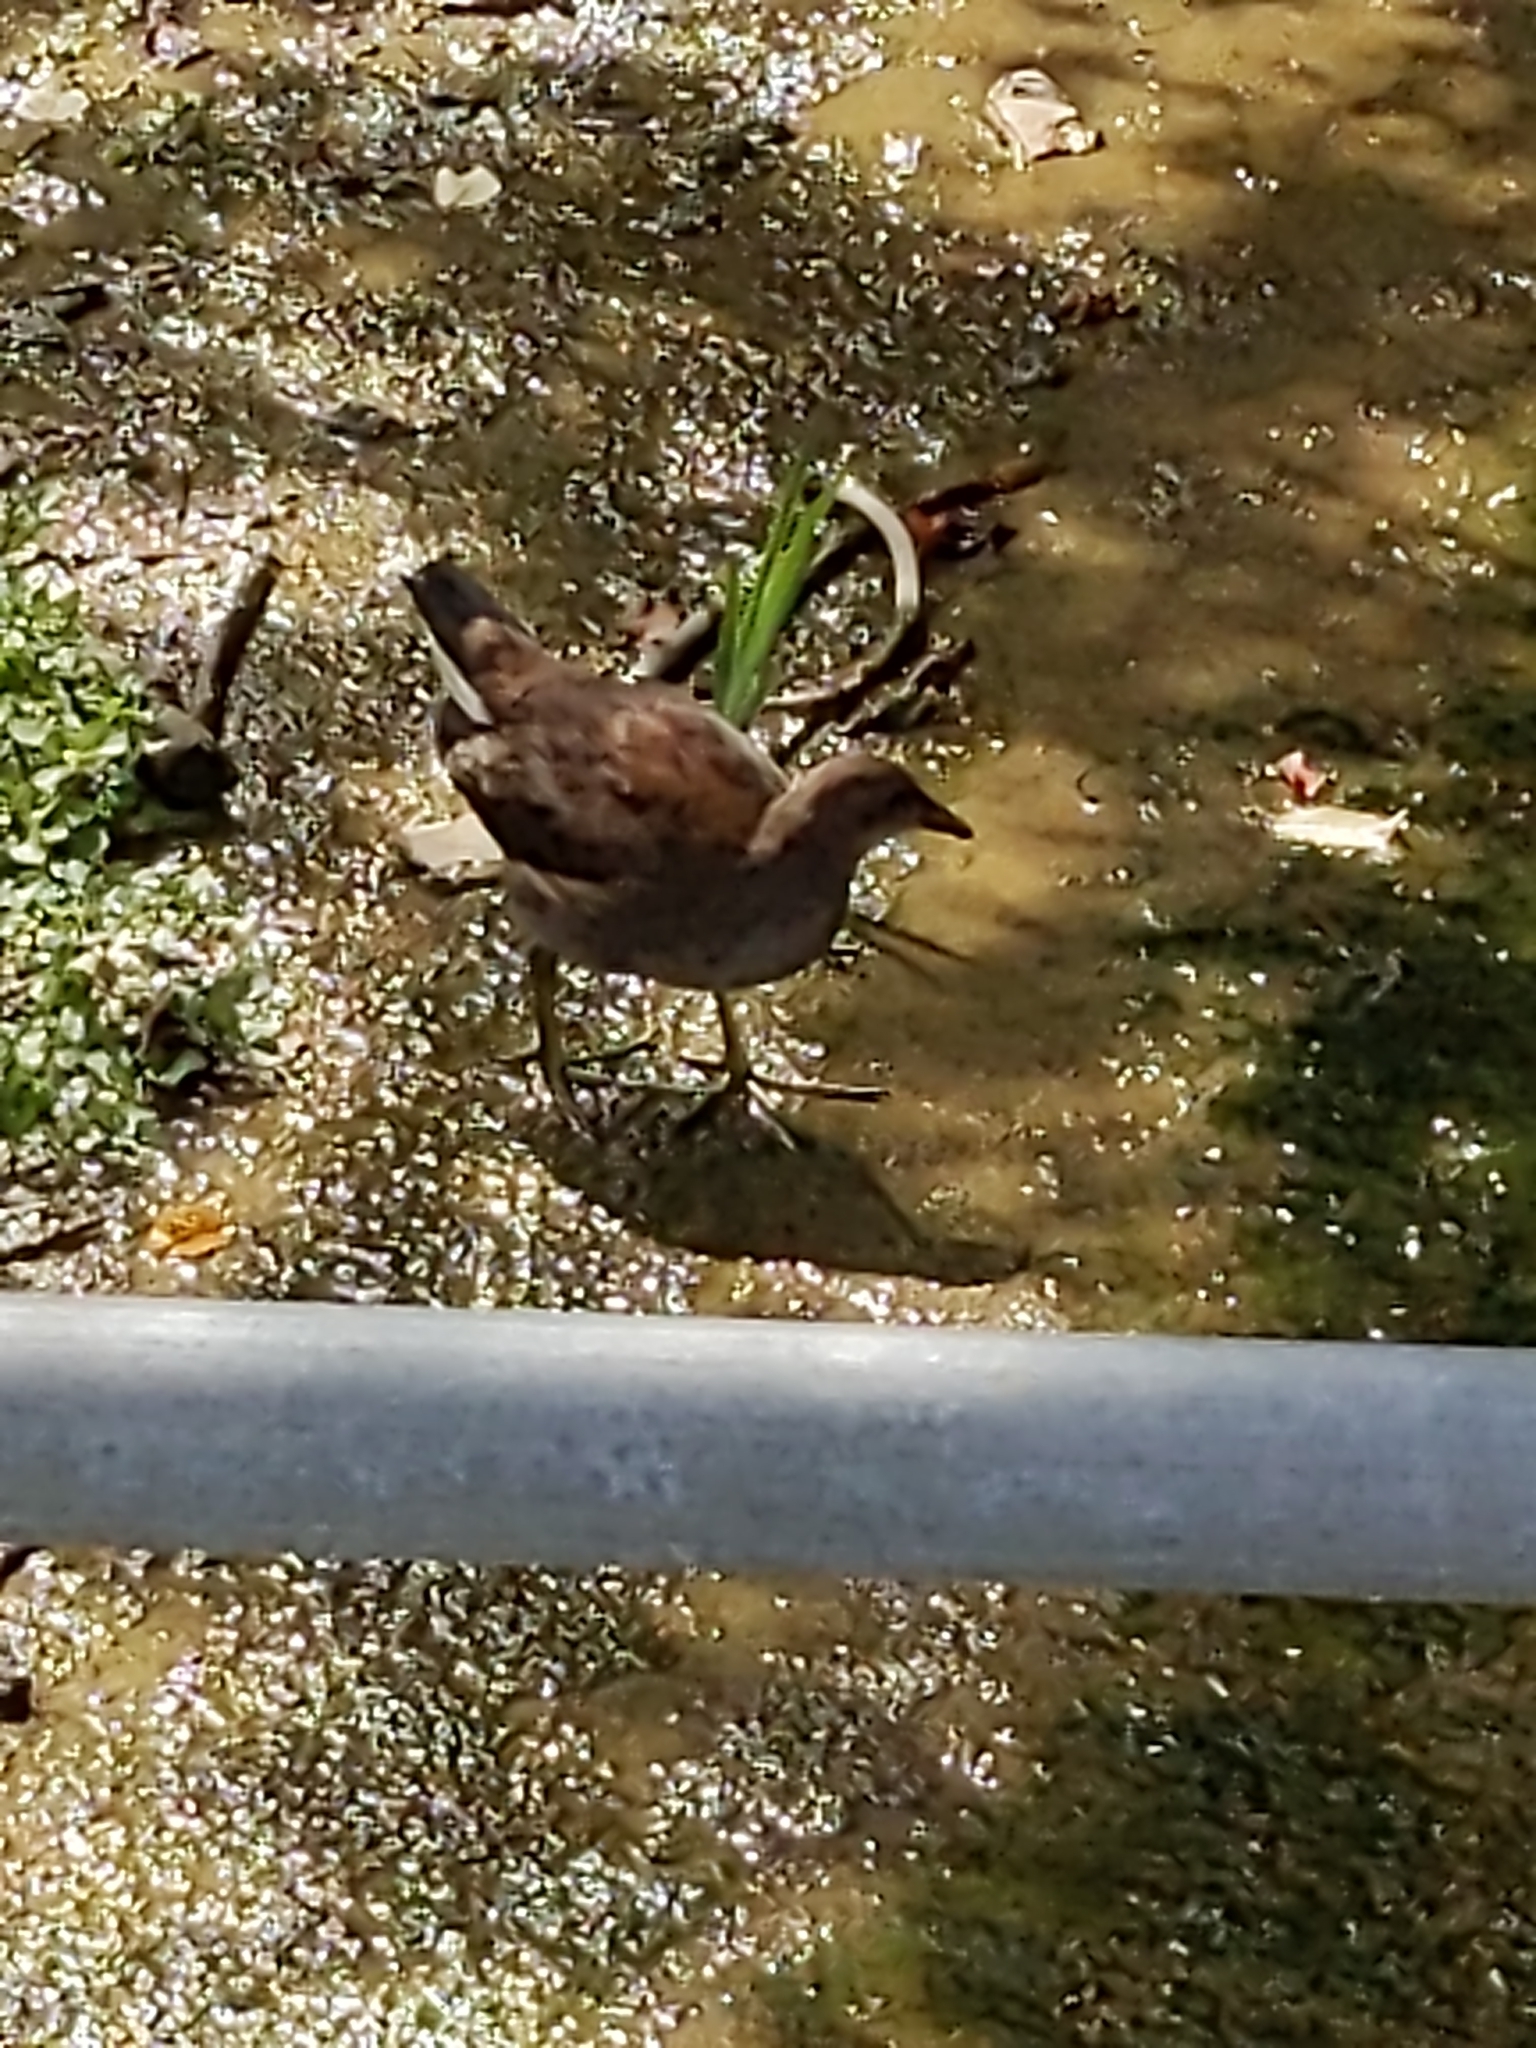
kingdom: Animalia
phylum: Chordata
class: Aves
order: Gruiformes
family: Rallidae
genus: Gallinula
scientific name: Gallinula chloropus
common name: Common moorhen
